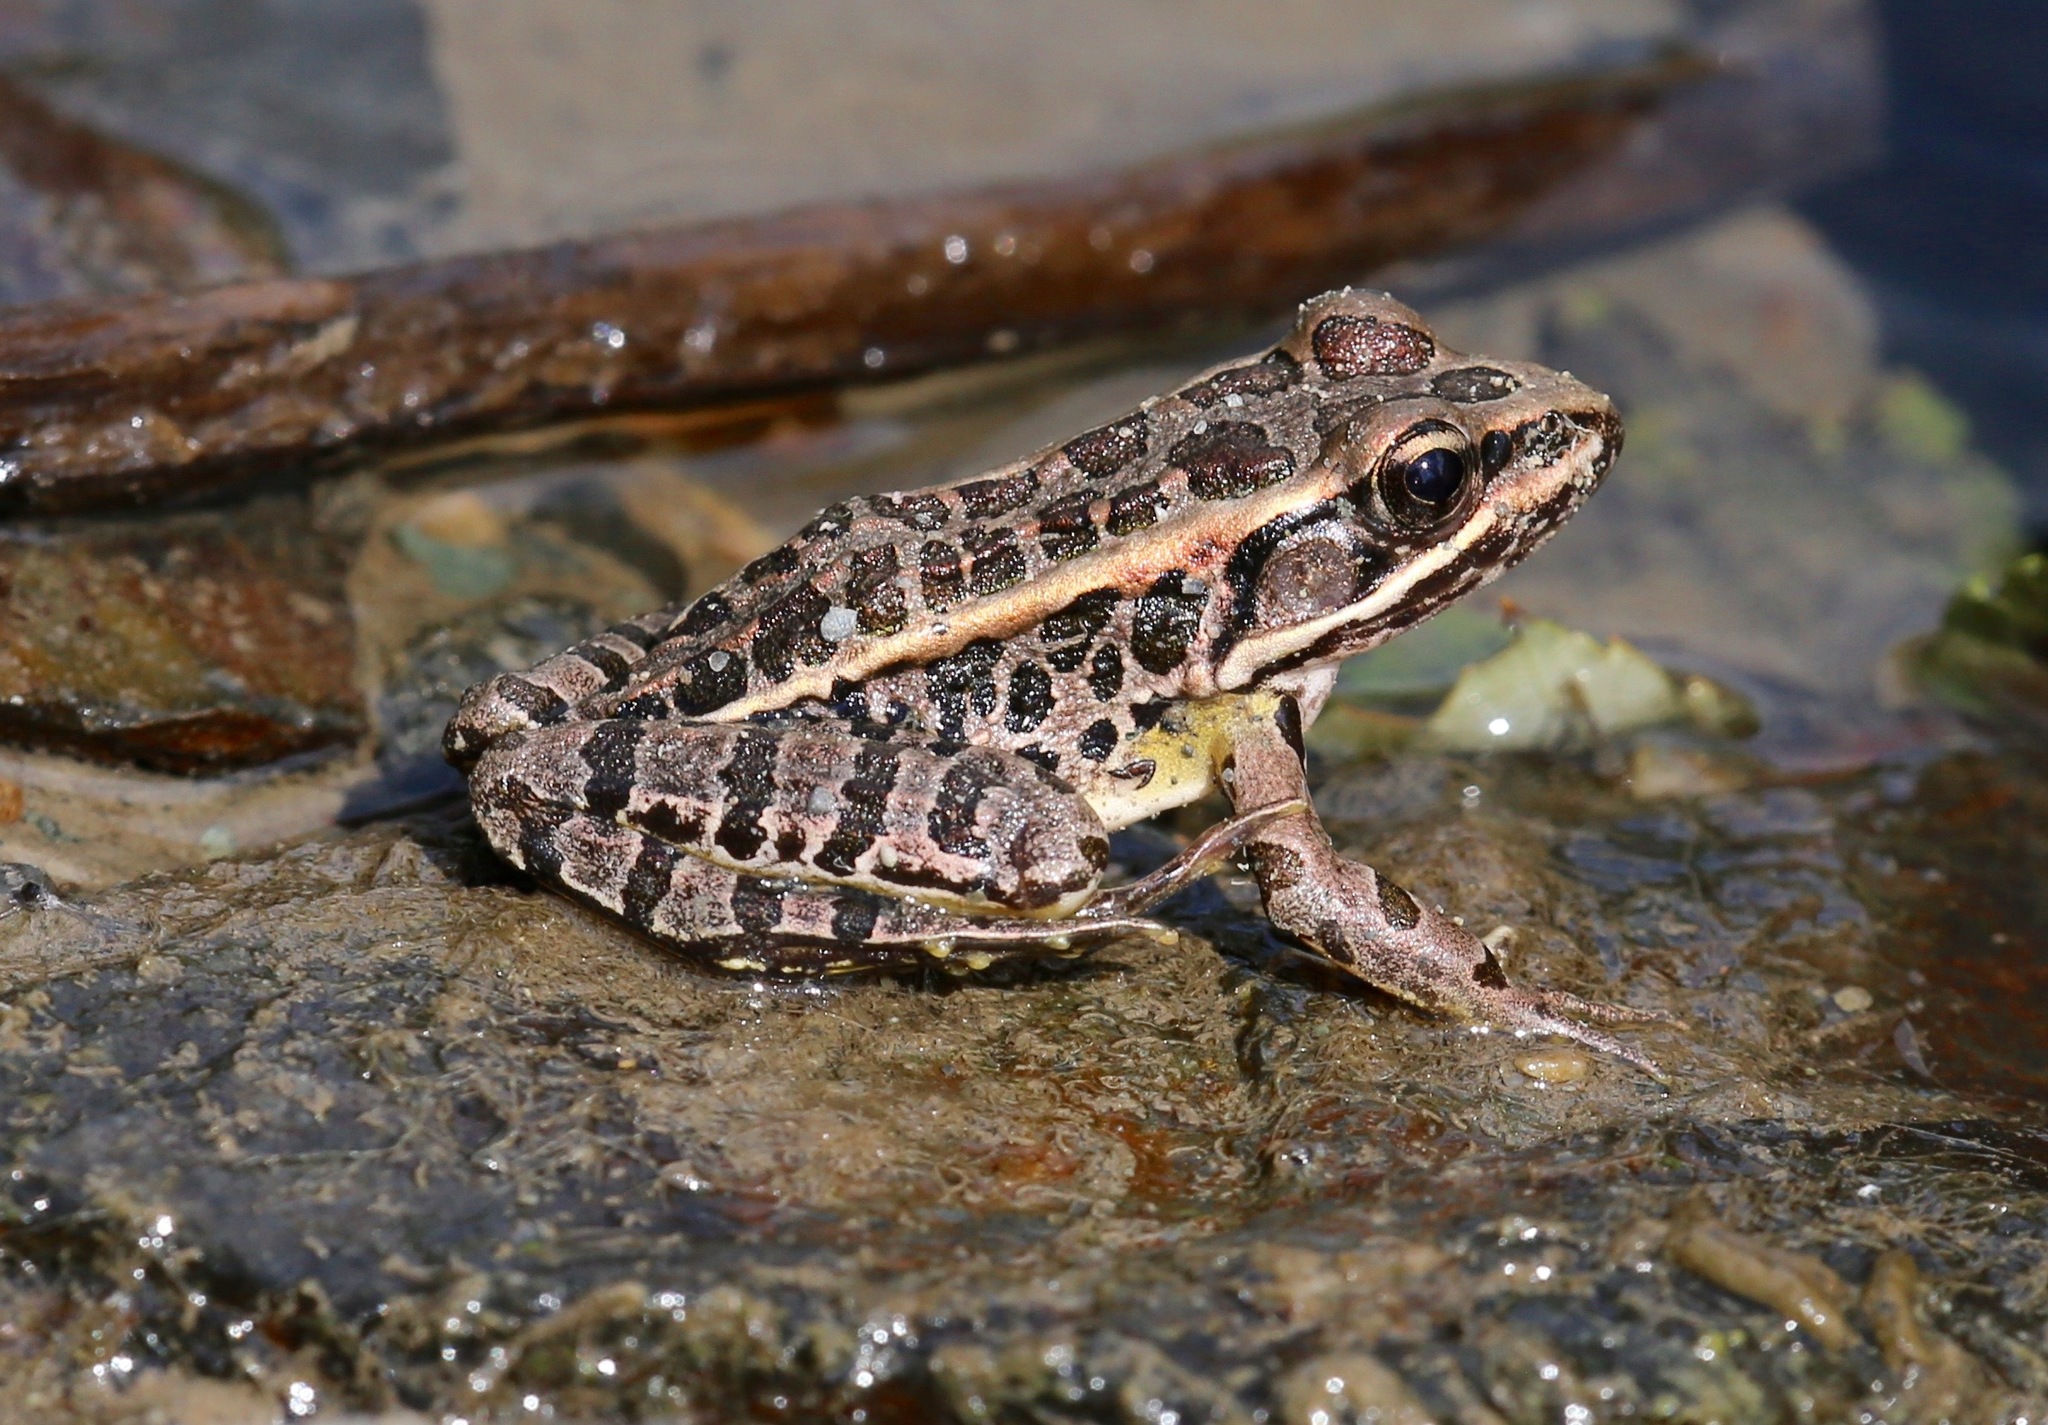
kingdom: Animalia
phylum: Chordata
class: Amphibia
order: Anura
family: Ranidae
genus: Lithobates
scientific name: Lithobates palustris
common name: Pickerel frog
